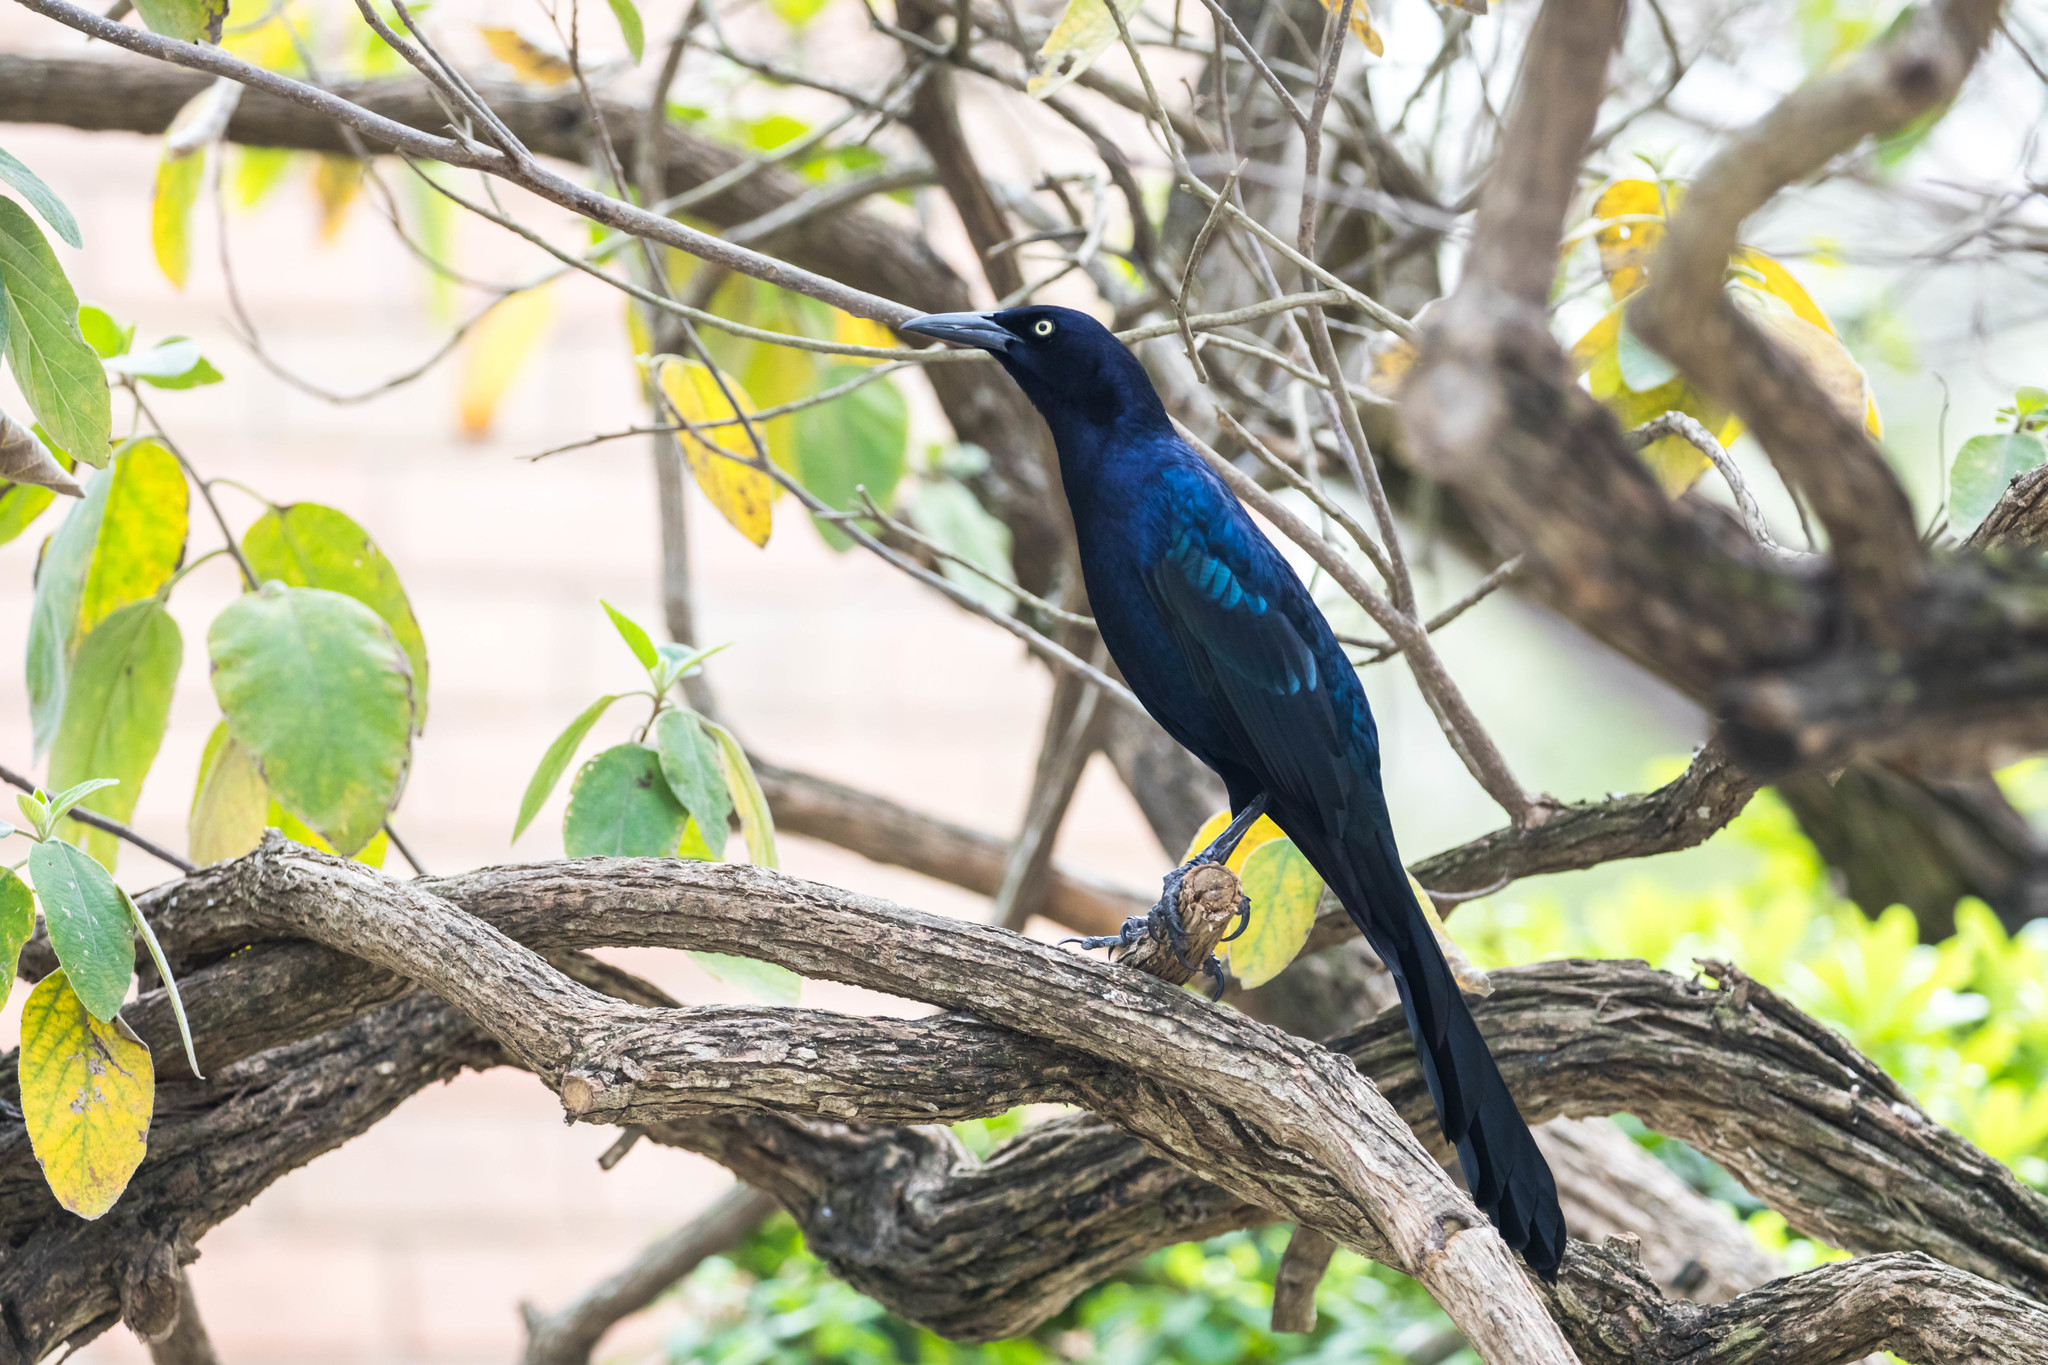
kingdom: Animalia
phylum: Chordata
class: Aves
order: Passeriformes
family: Icteridae
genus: Quiscalus
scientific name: Quiscalus mexicanus
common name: Great-tailed grackle
